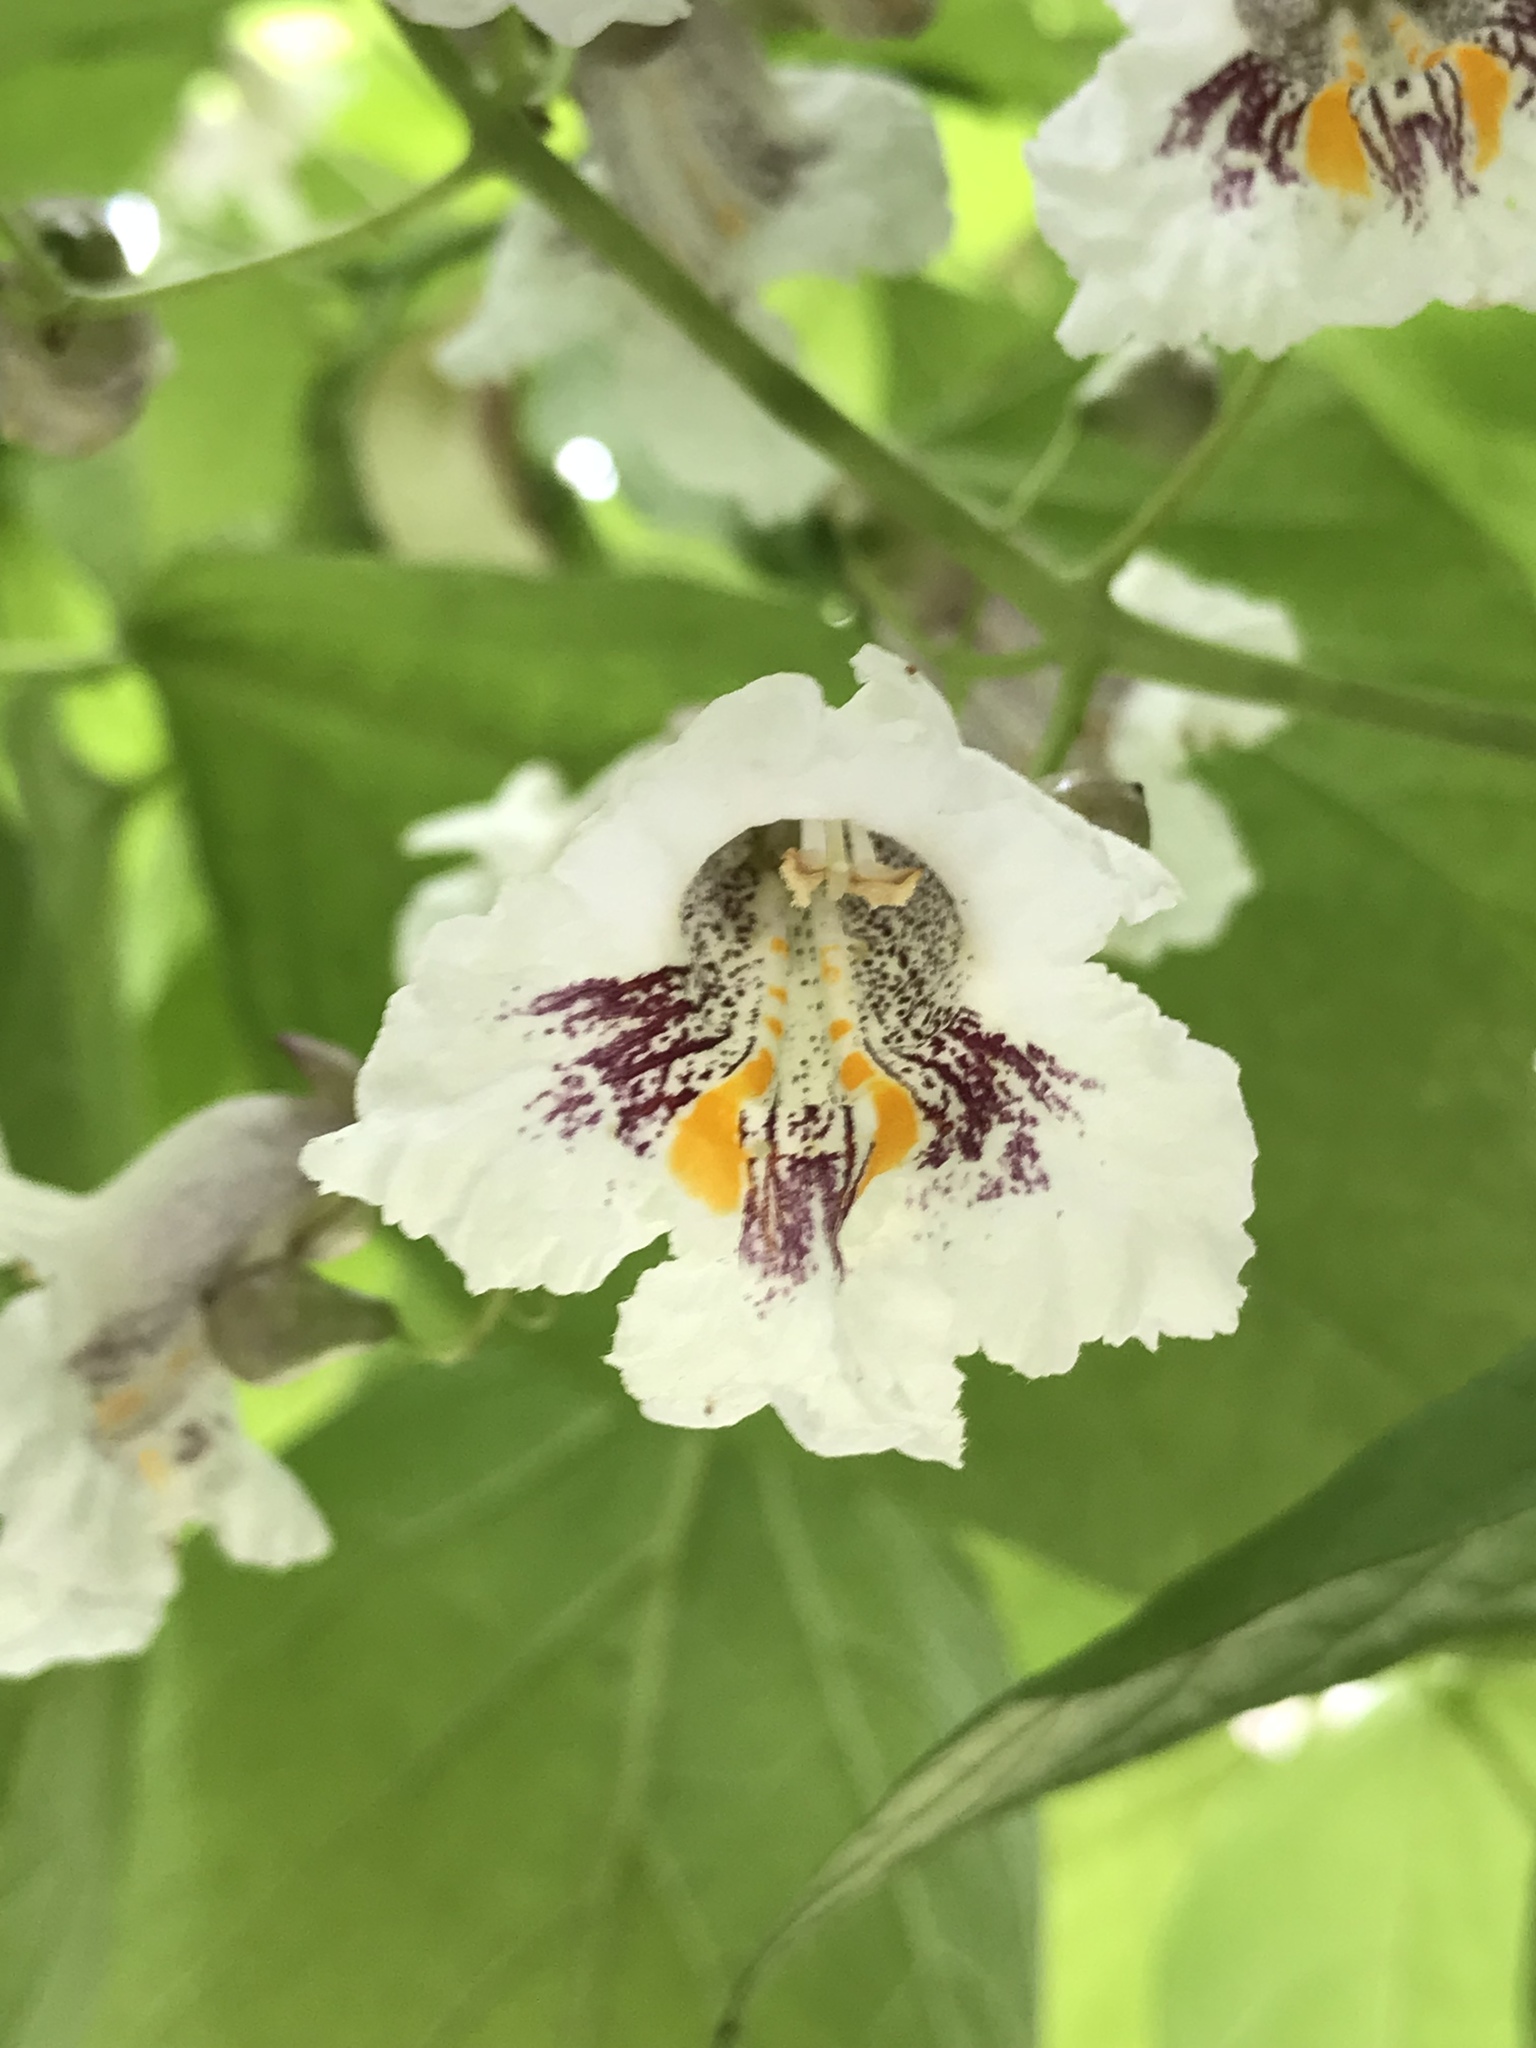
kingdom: Plantae
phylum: Tracheophyta
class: Magnoliopsida
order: Lamiales
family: Bignoniaceae
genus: Catalpa
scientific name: Catalpa bignonioides
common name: Southern catalpa
